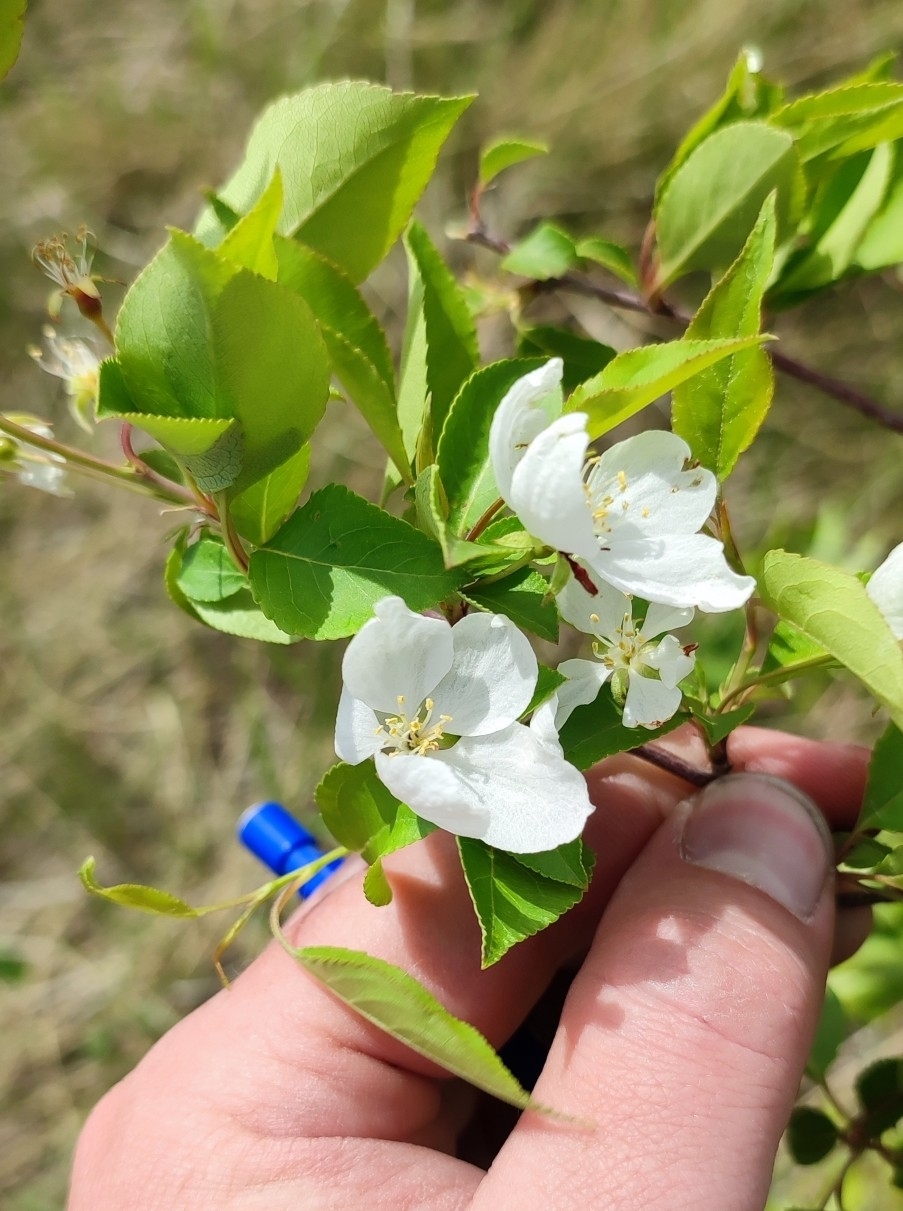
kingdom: Plantae
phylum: Tracheophyta
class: Magnoliopsida
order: Rosales
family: Rosaceae
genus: Malus
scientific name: Malus baccata
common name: Siberian crab
